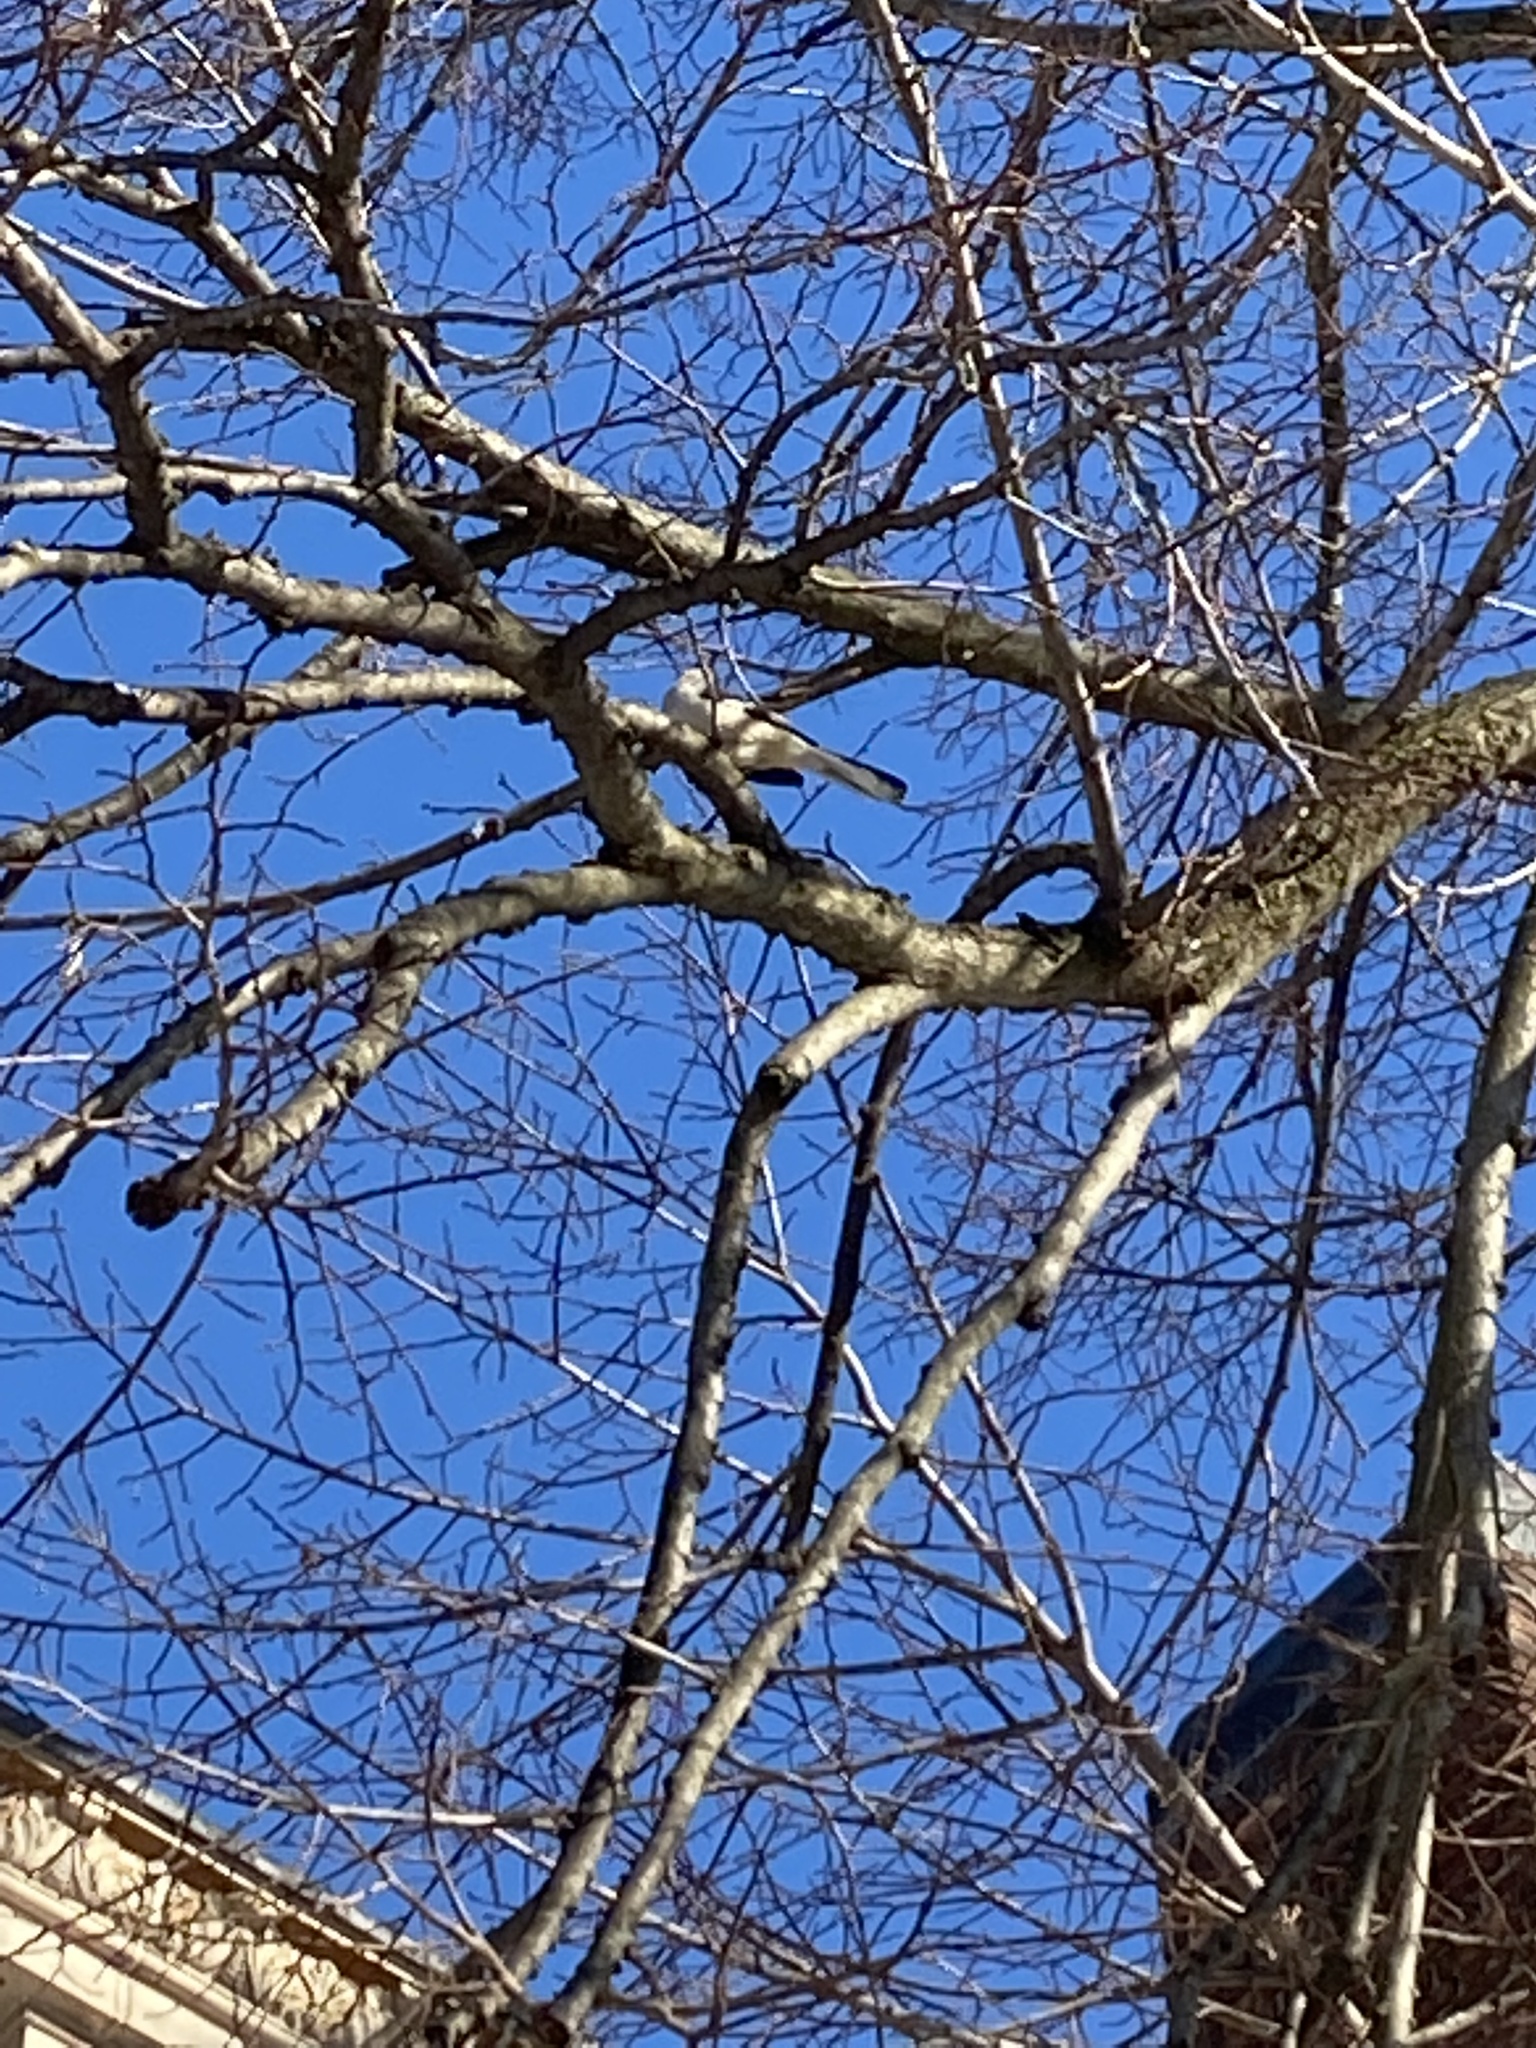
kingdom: Animalia
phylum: Chordata
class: Aves
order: Passeriformes
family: Mimidae
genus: Mimus
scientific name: Mimus polyglottos
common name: Northern mockingbird
